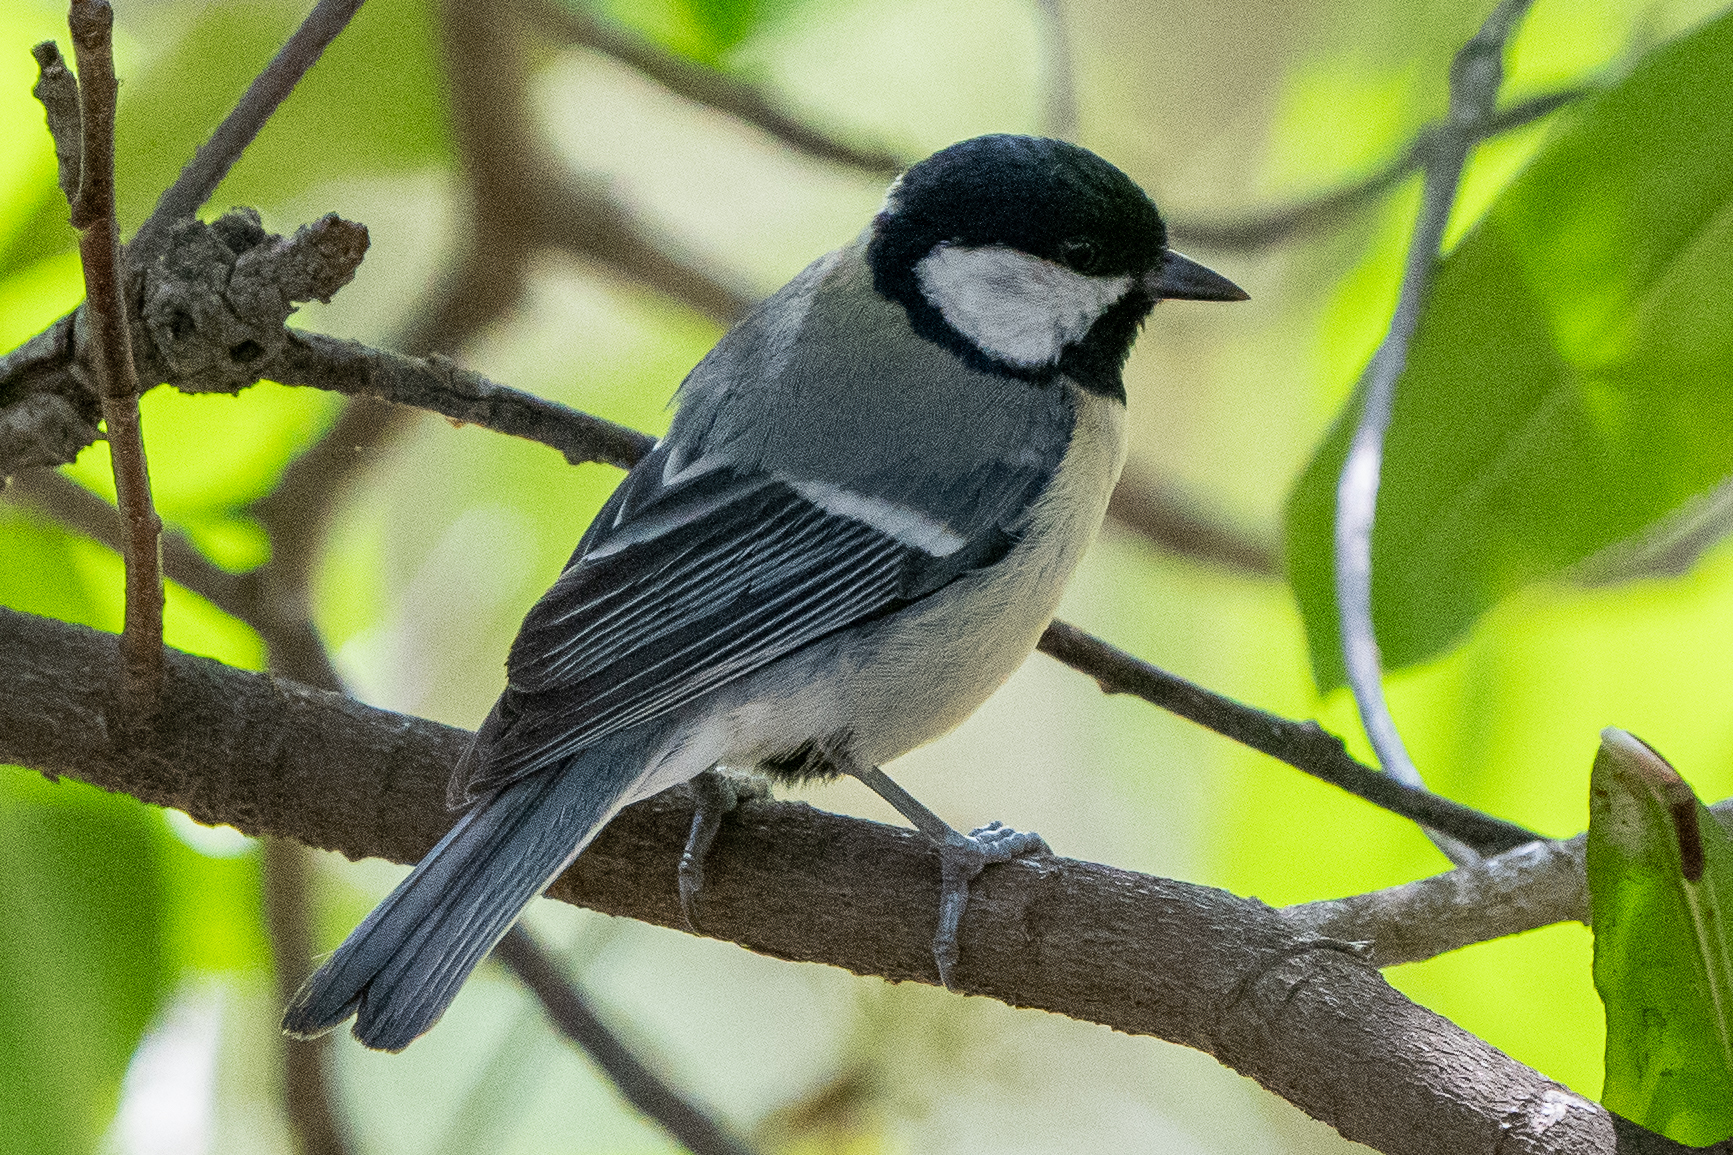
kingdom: Animalia
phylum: Chordata
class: Aves
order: Passeriformes
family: Paridae
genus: Parus
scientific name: Parus major
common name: Great tit
